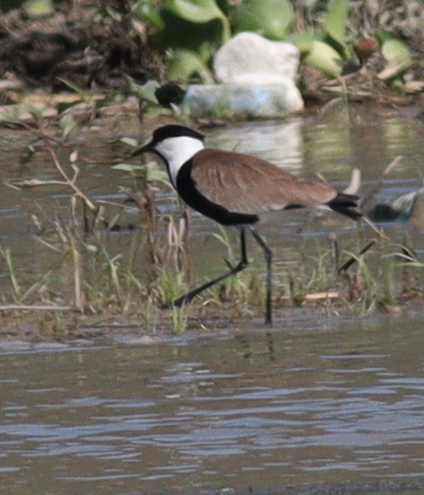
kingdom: Animalia
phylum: Chordata
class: Aves
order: Charadriiformes
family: Charadriidae
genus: Vanellus
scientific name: Vanellus spinosus
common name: Spur-winged lapwing
